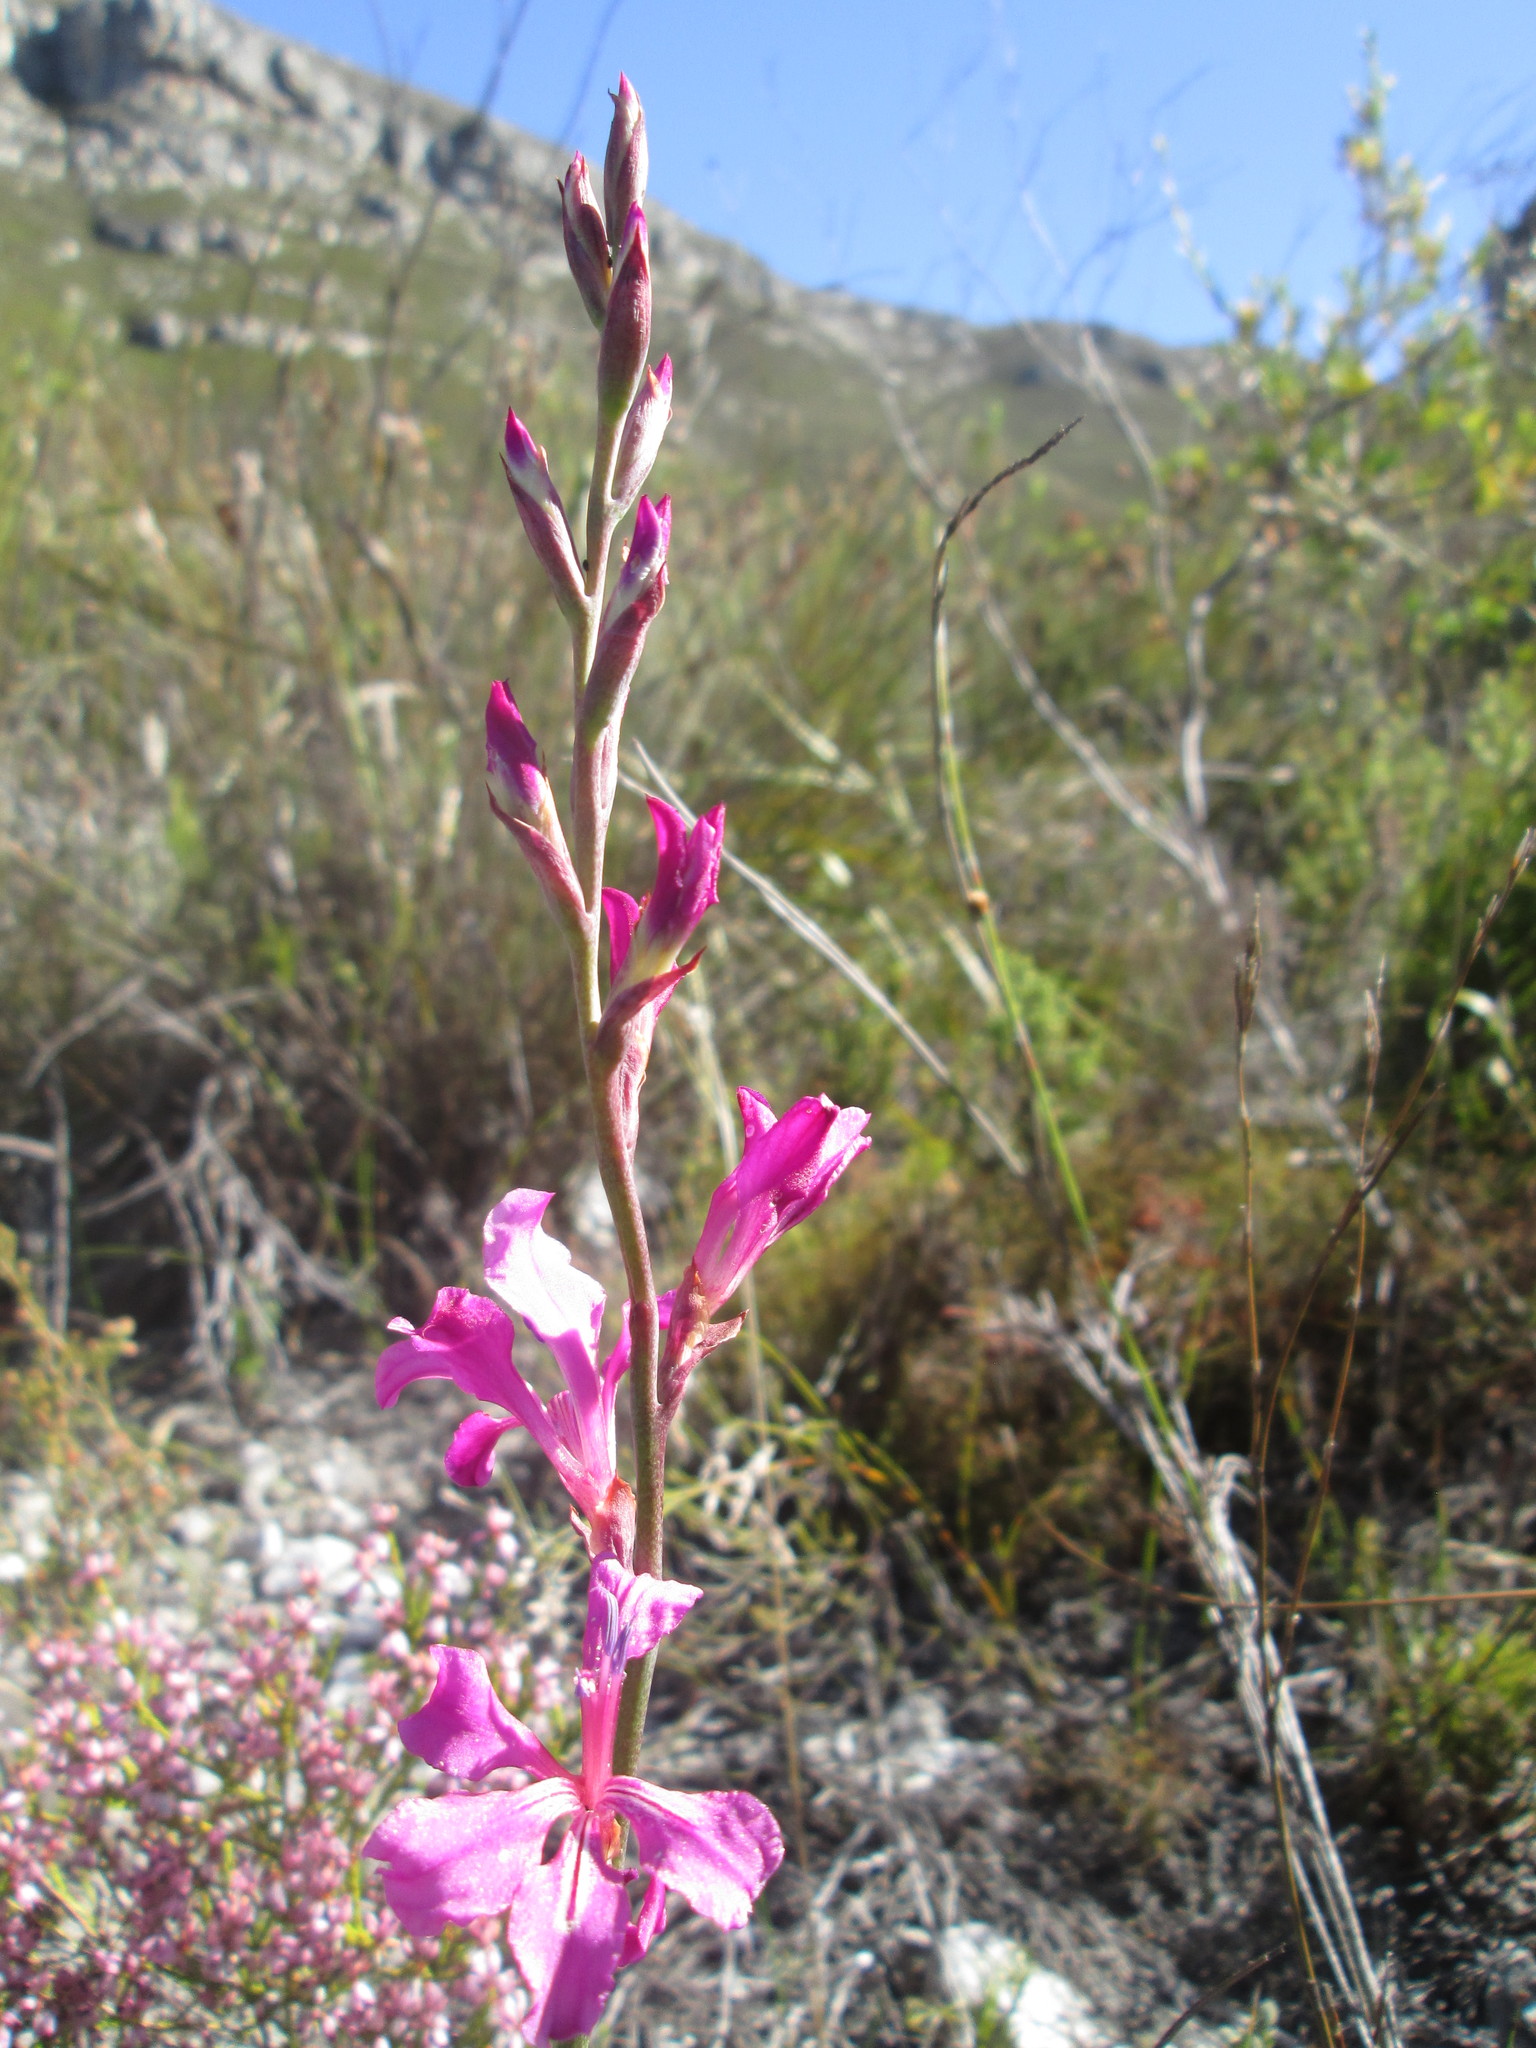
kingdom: Plantae
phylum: Tracheophyta
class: Liliopsida
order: Asparagales
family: Iridaceae
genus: Tritoniopsis
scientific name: Tritoniopsis lata
